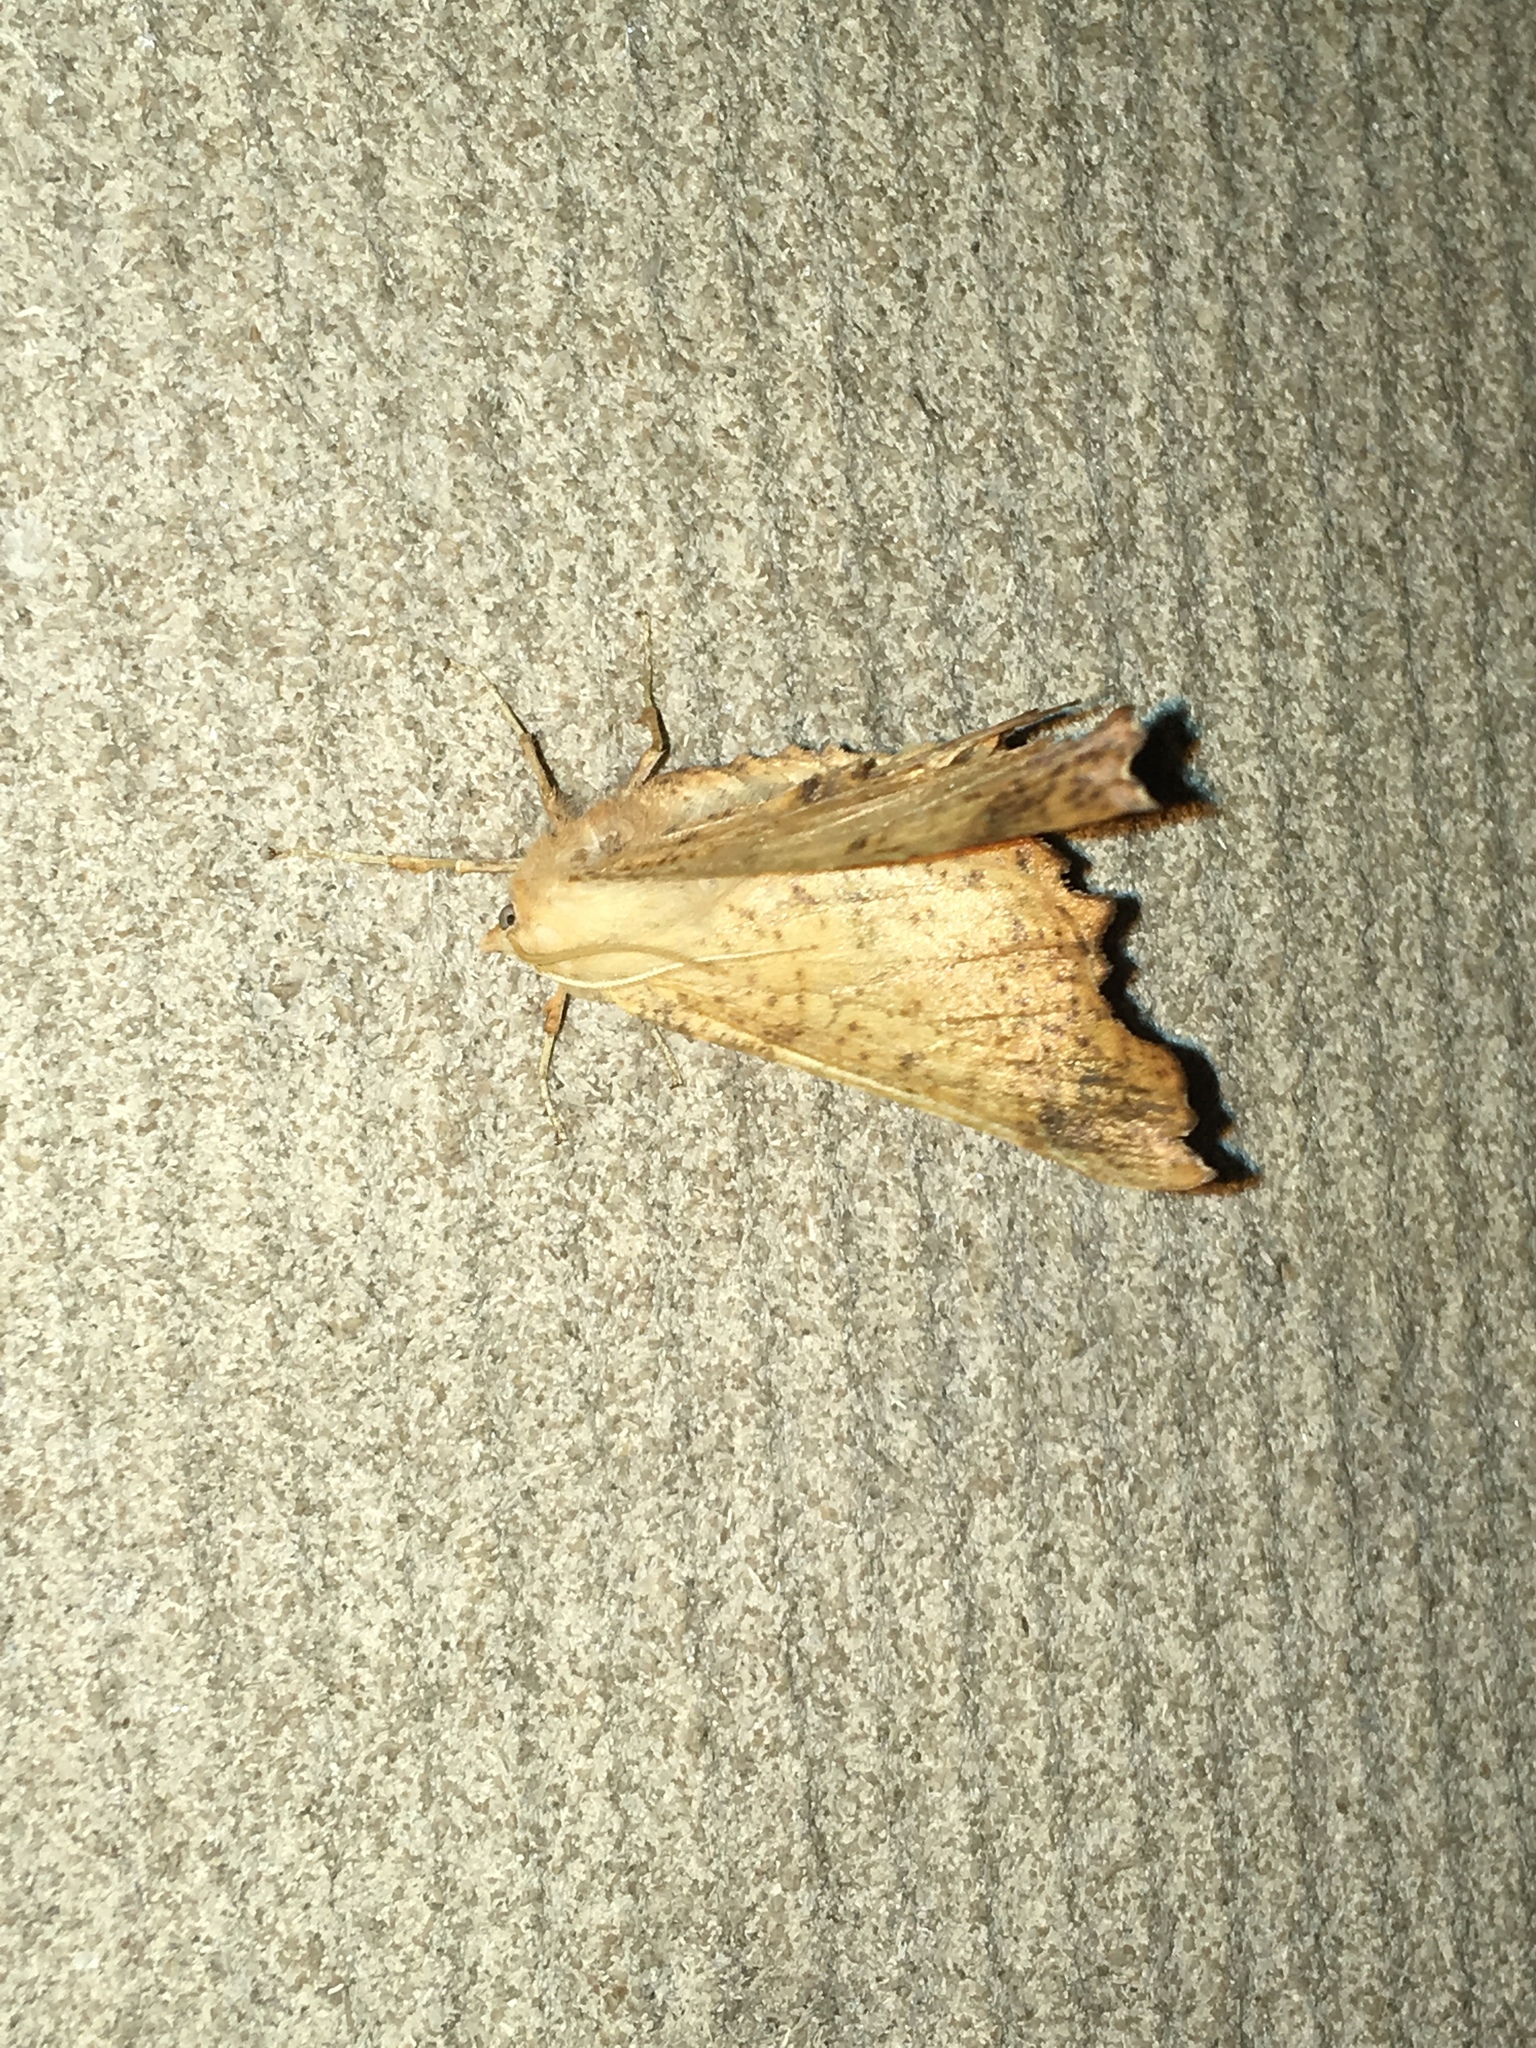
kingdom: Animalia
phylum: Arthropoda
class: Insecta
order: Lepidoptera
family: Geometridae
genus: Ennomos
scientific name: Ennomos magnaria
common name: Maple spanworm
